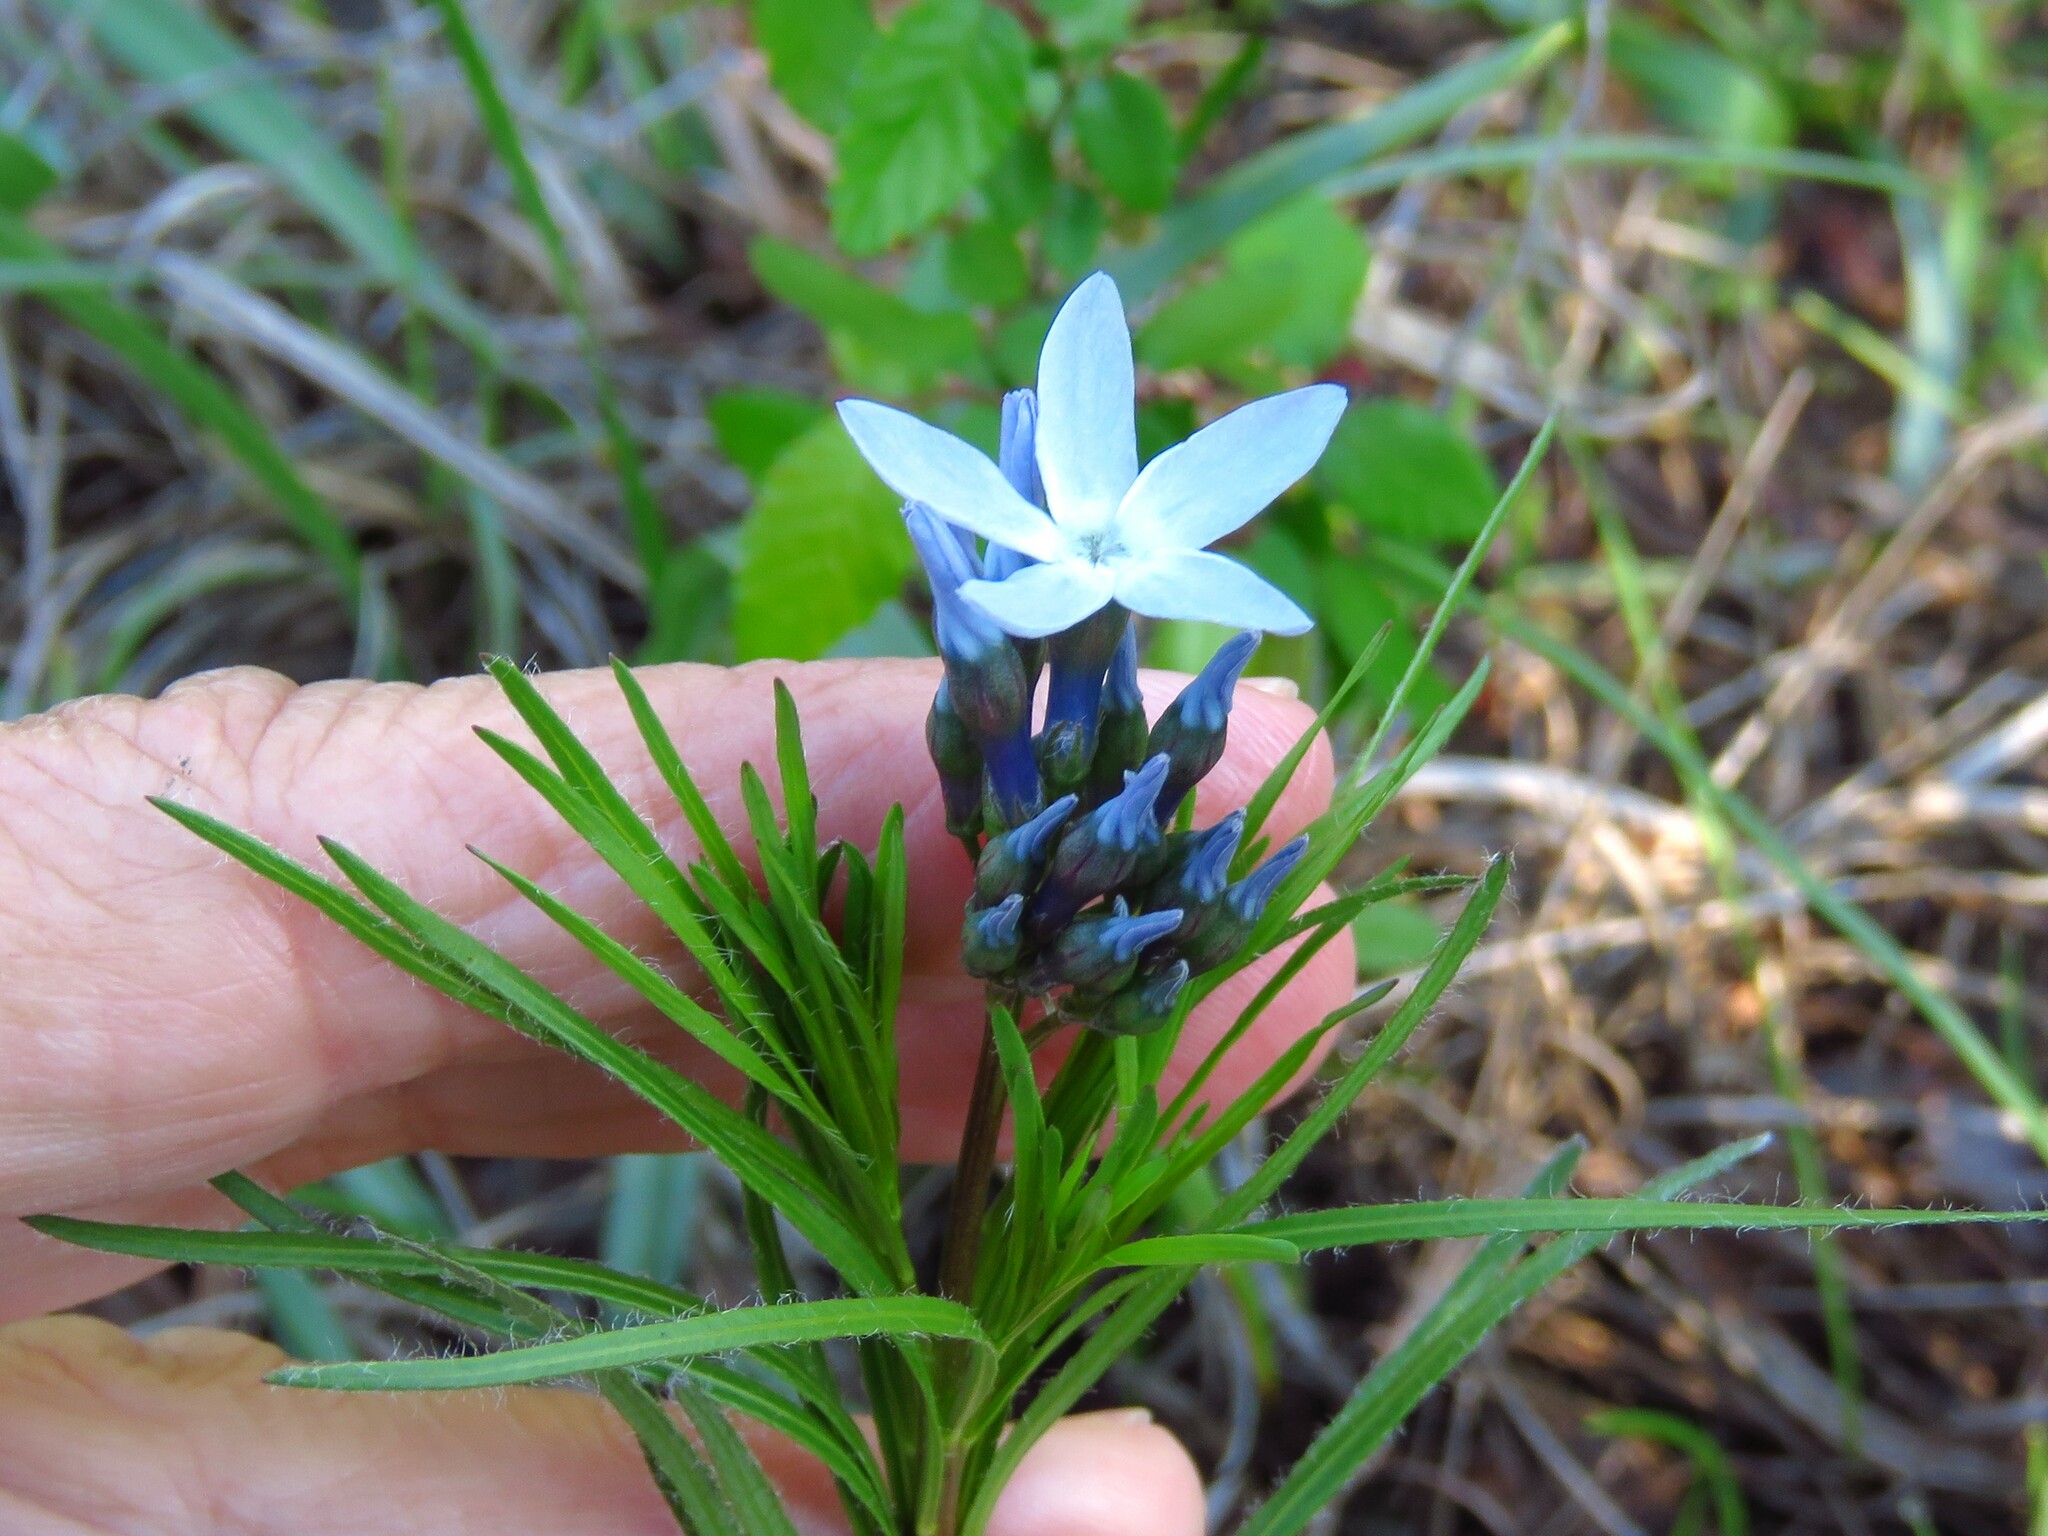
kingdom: Plantae
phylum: Tracheophyta
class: Magnoliopsida
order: Gentianales
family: Apocynaceae
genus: Amsonia
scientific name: Amsonia ciliata
